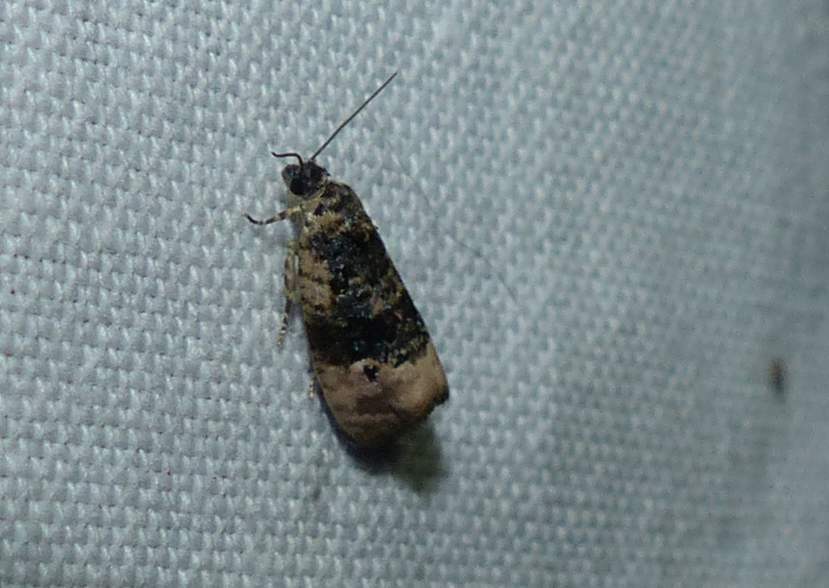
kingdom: Animalia
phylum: Arthropoda
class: Insecta
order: Lepidoptera
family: Tortricidae
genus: Hedya
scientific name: Hedya separatana
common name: Pink-washed leafroller moth
